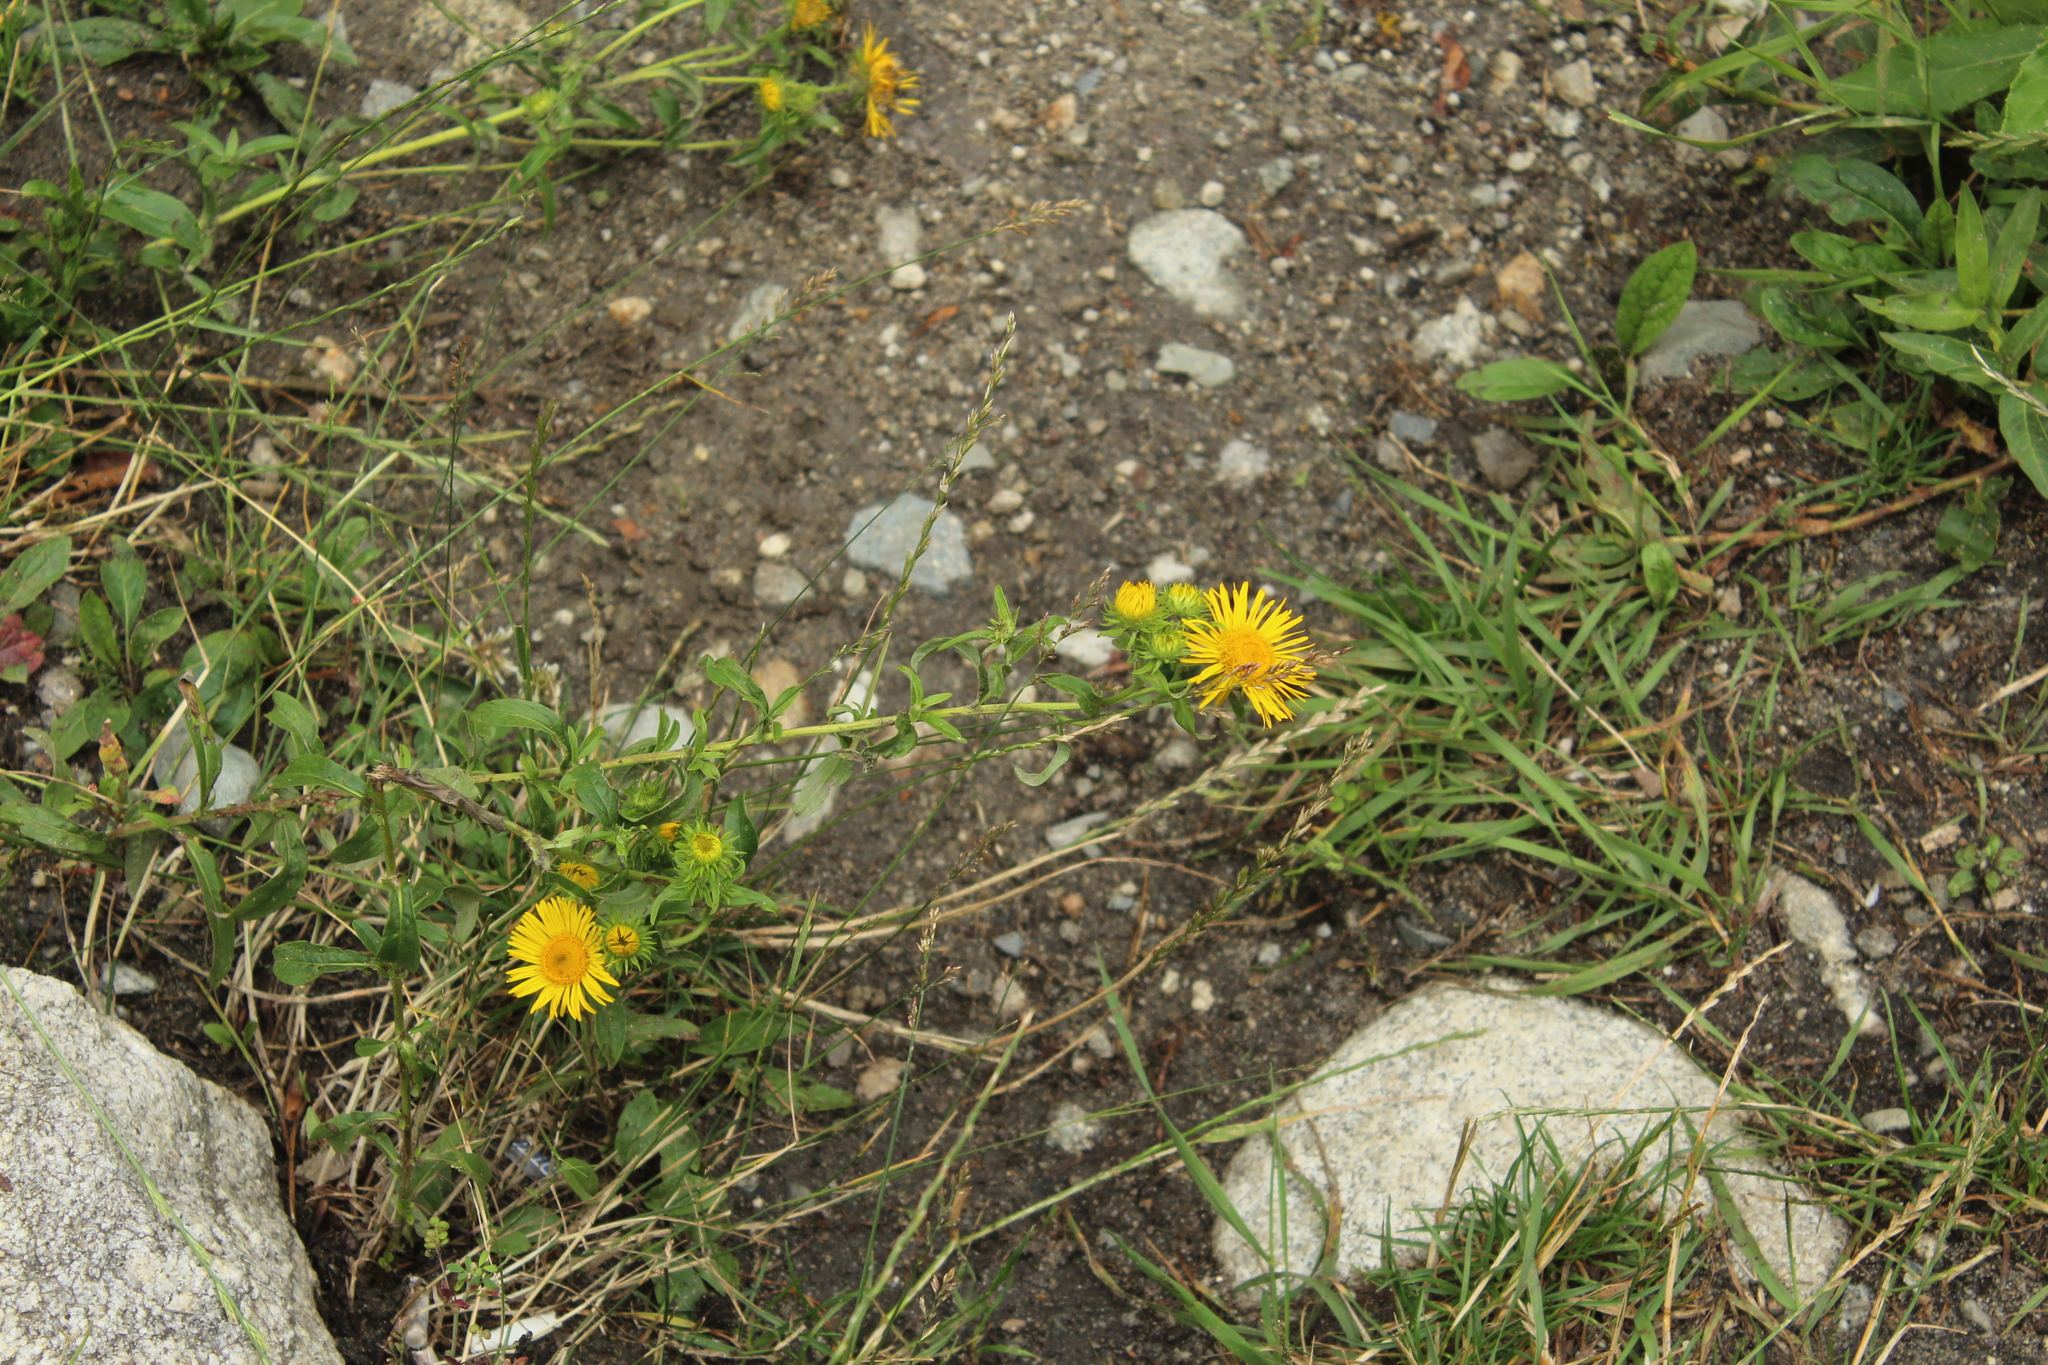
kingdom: Plantae
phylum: Tracheophyta
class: Magnoliopsida
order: Asterales
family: Asteraceae
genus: Pentanema
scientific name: Pentanema britannicum
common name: British elecampane
